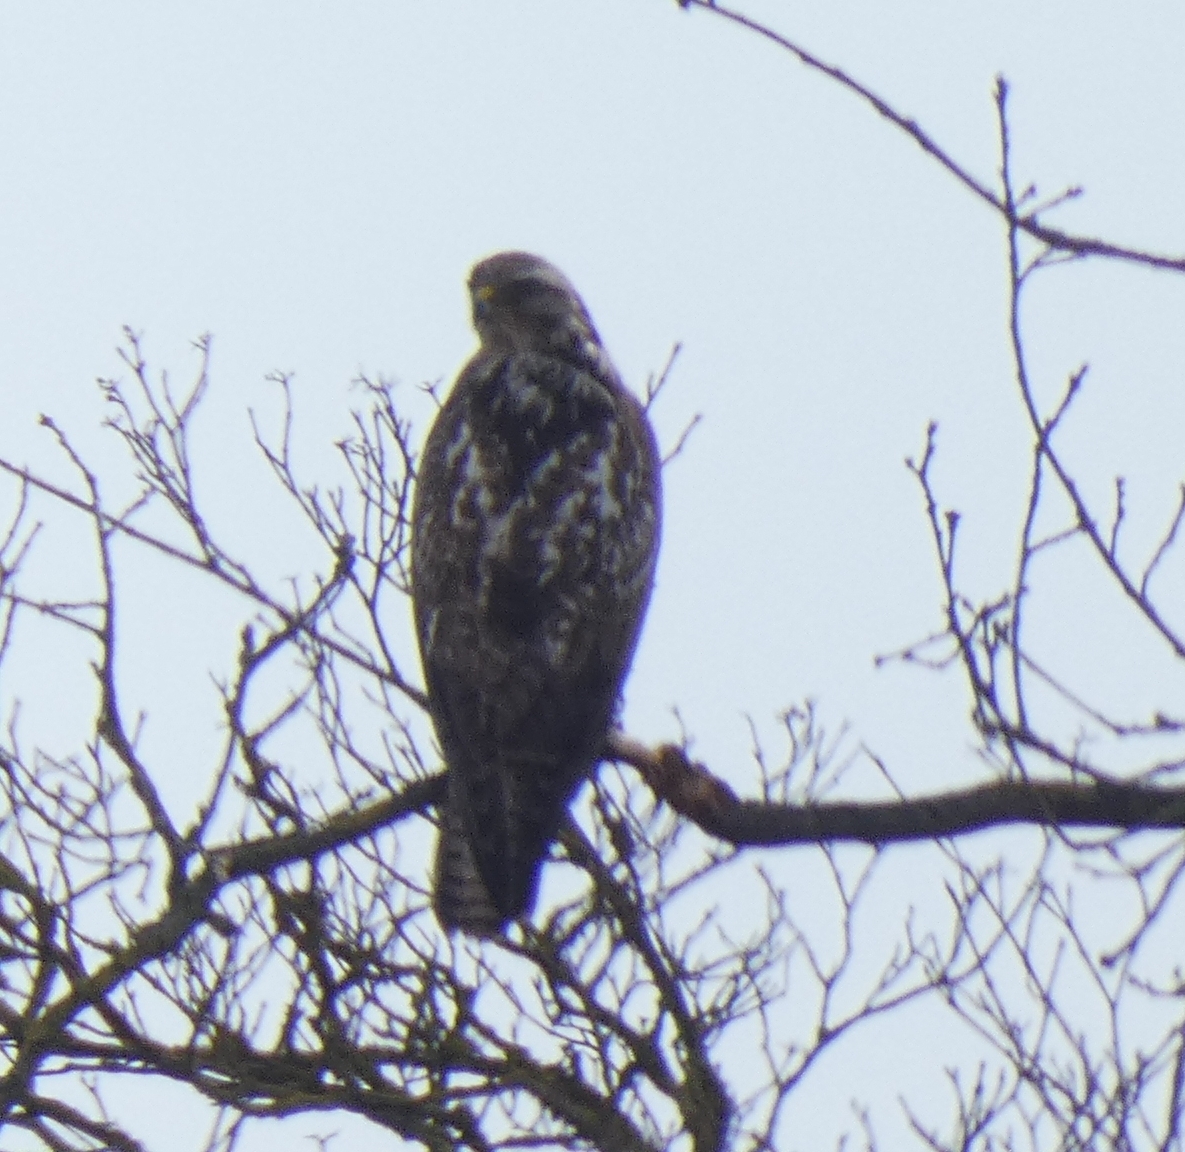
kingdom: Animalia
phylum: Chordata
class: Aves
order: Accipitriformes
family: Accipitridae
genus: Buteo
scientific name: Buteo buteo
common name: Common buzzard
